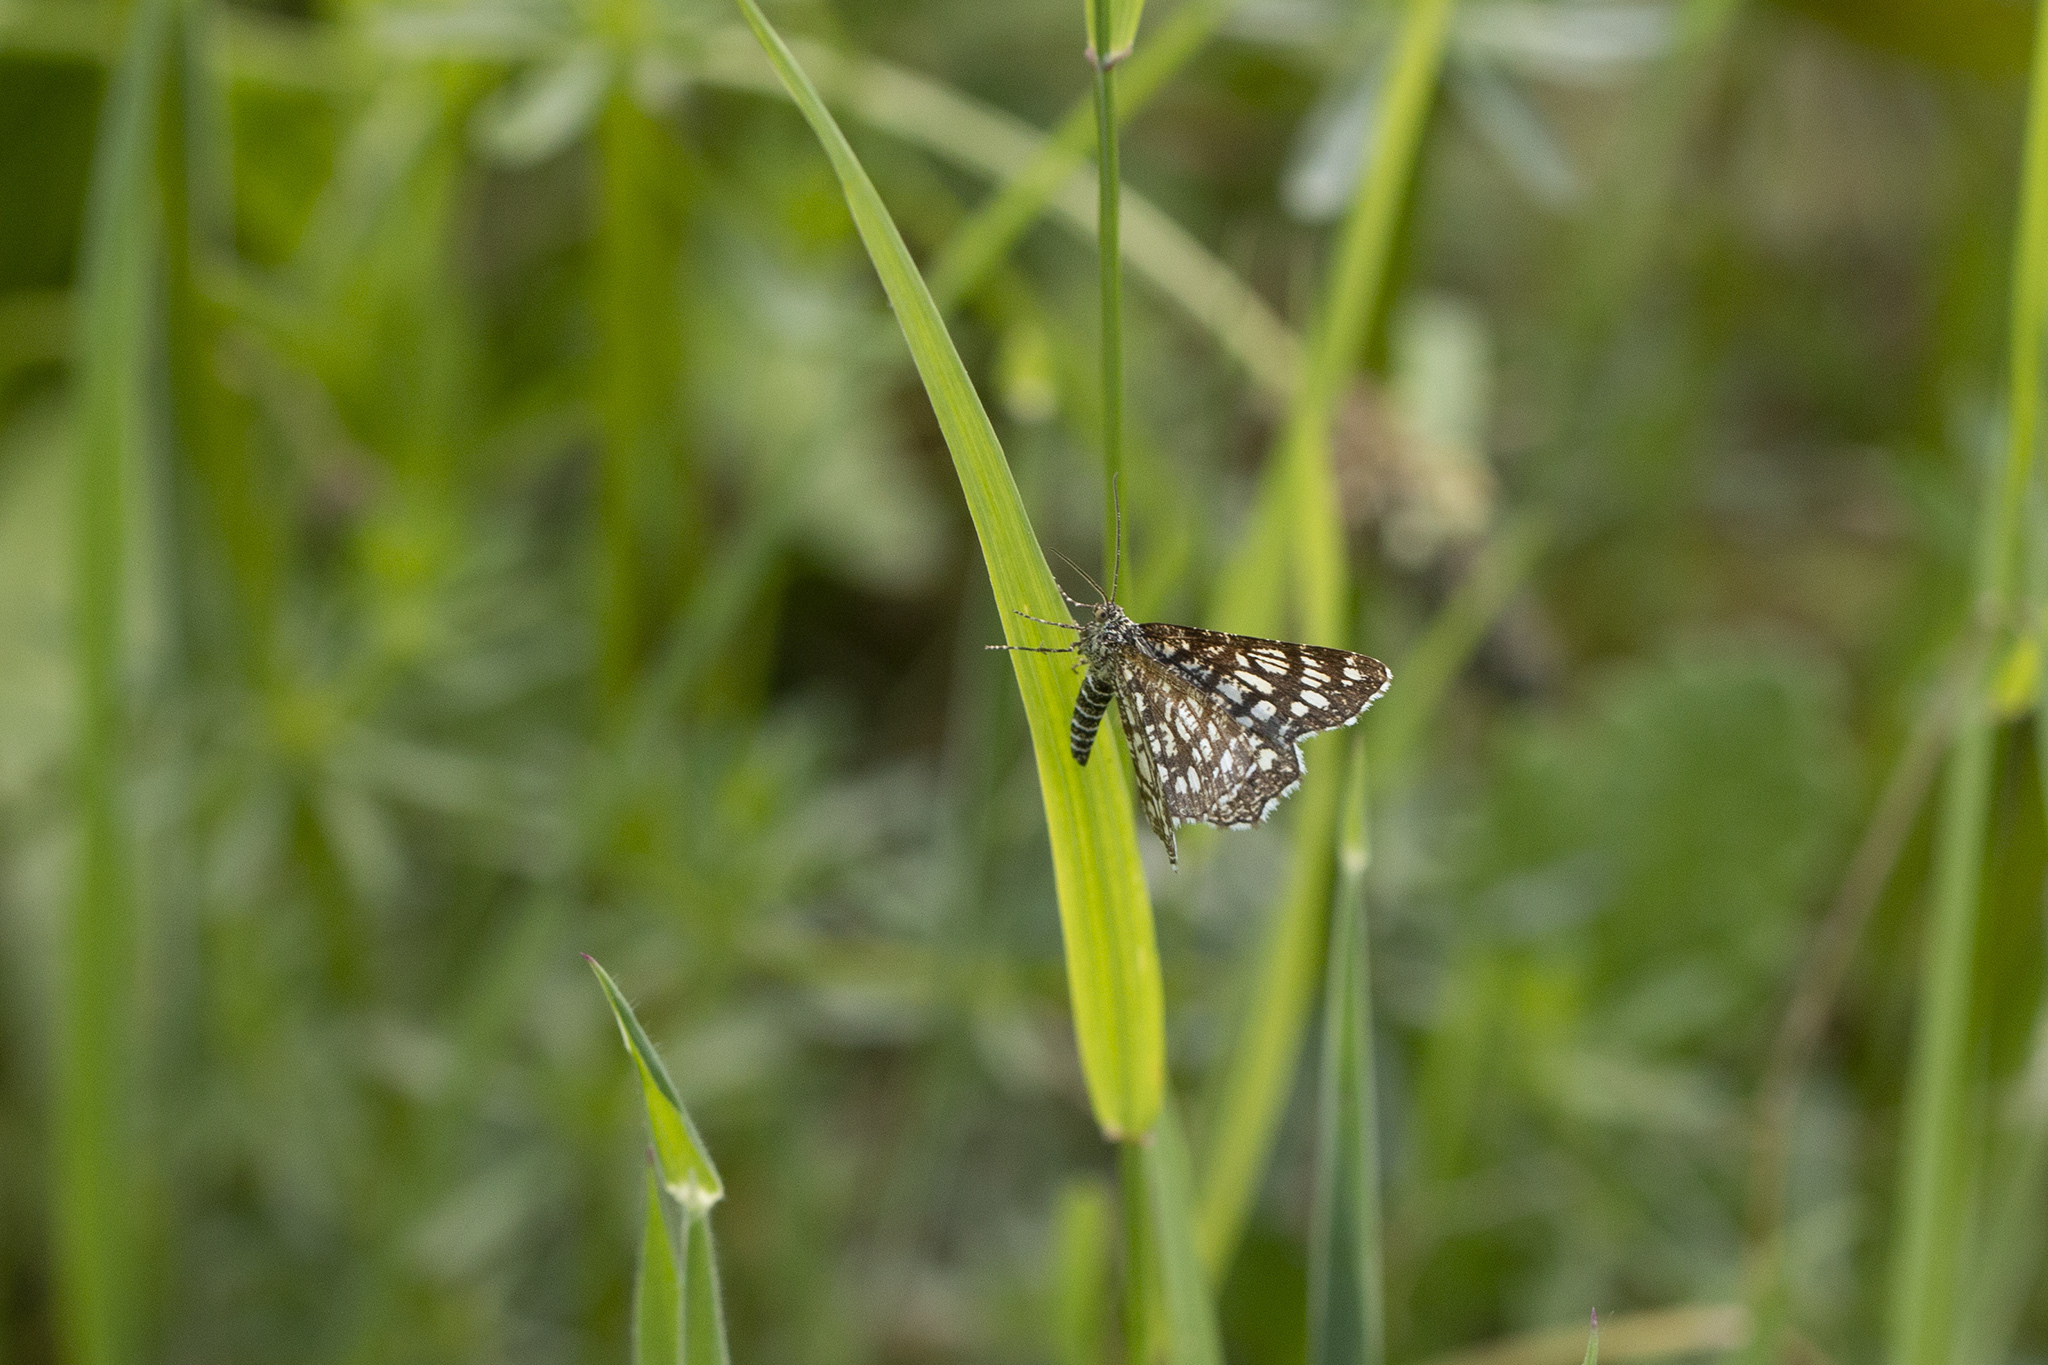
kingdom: Animalia
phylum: Arthropoda
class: Insecta
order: Lepidoptera
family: Geometridae
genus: Chiasmia
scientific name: Chiasmia clathrata
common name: Latticed heath
